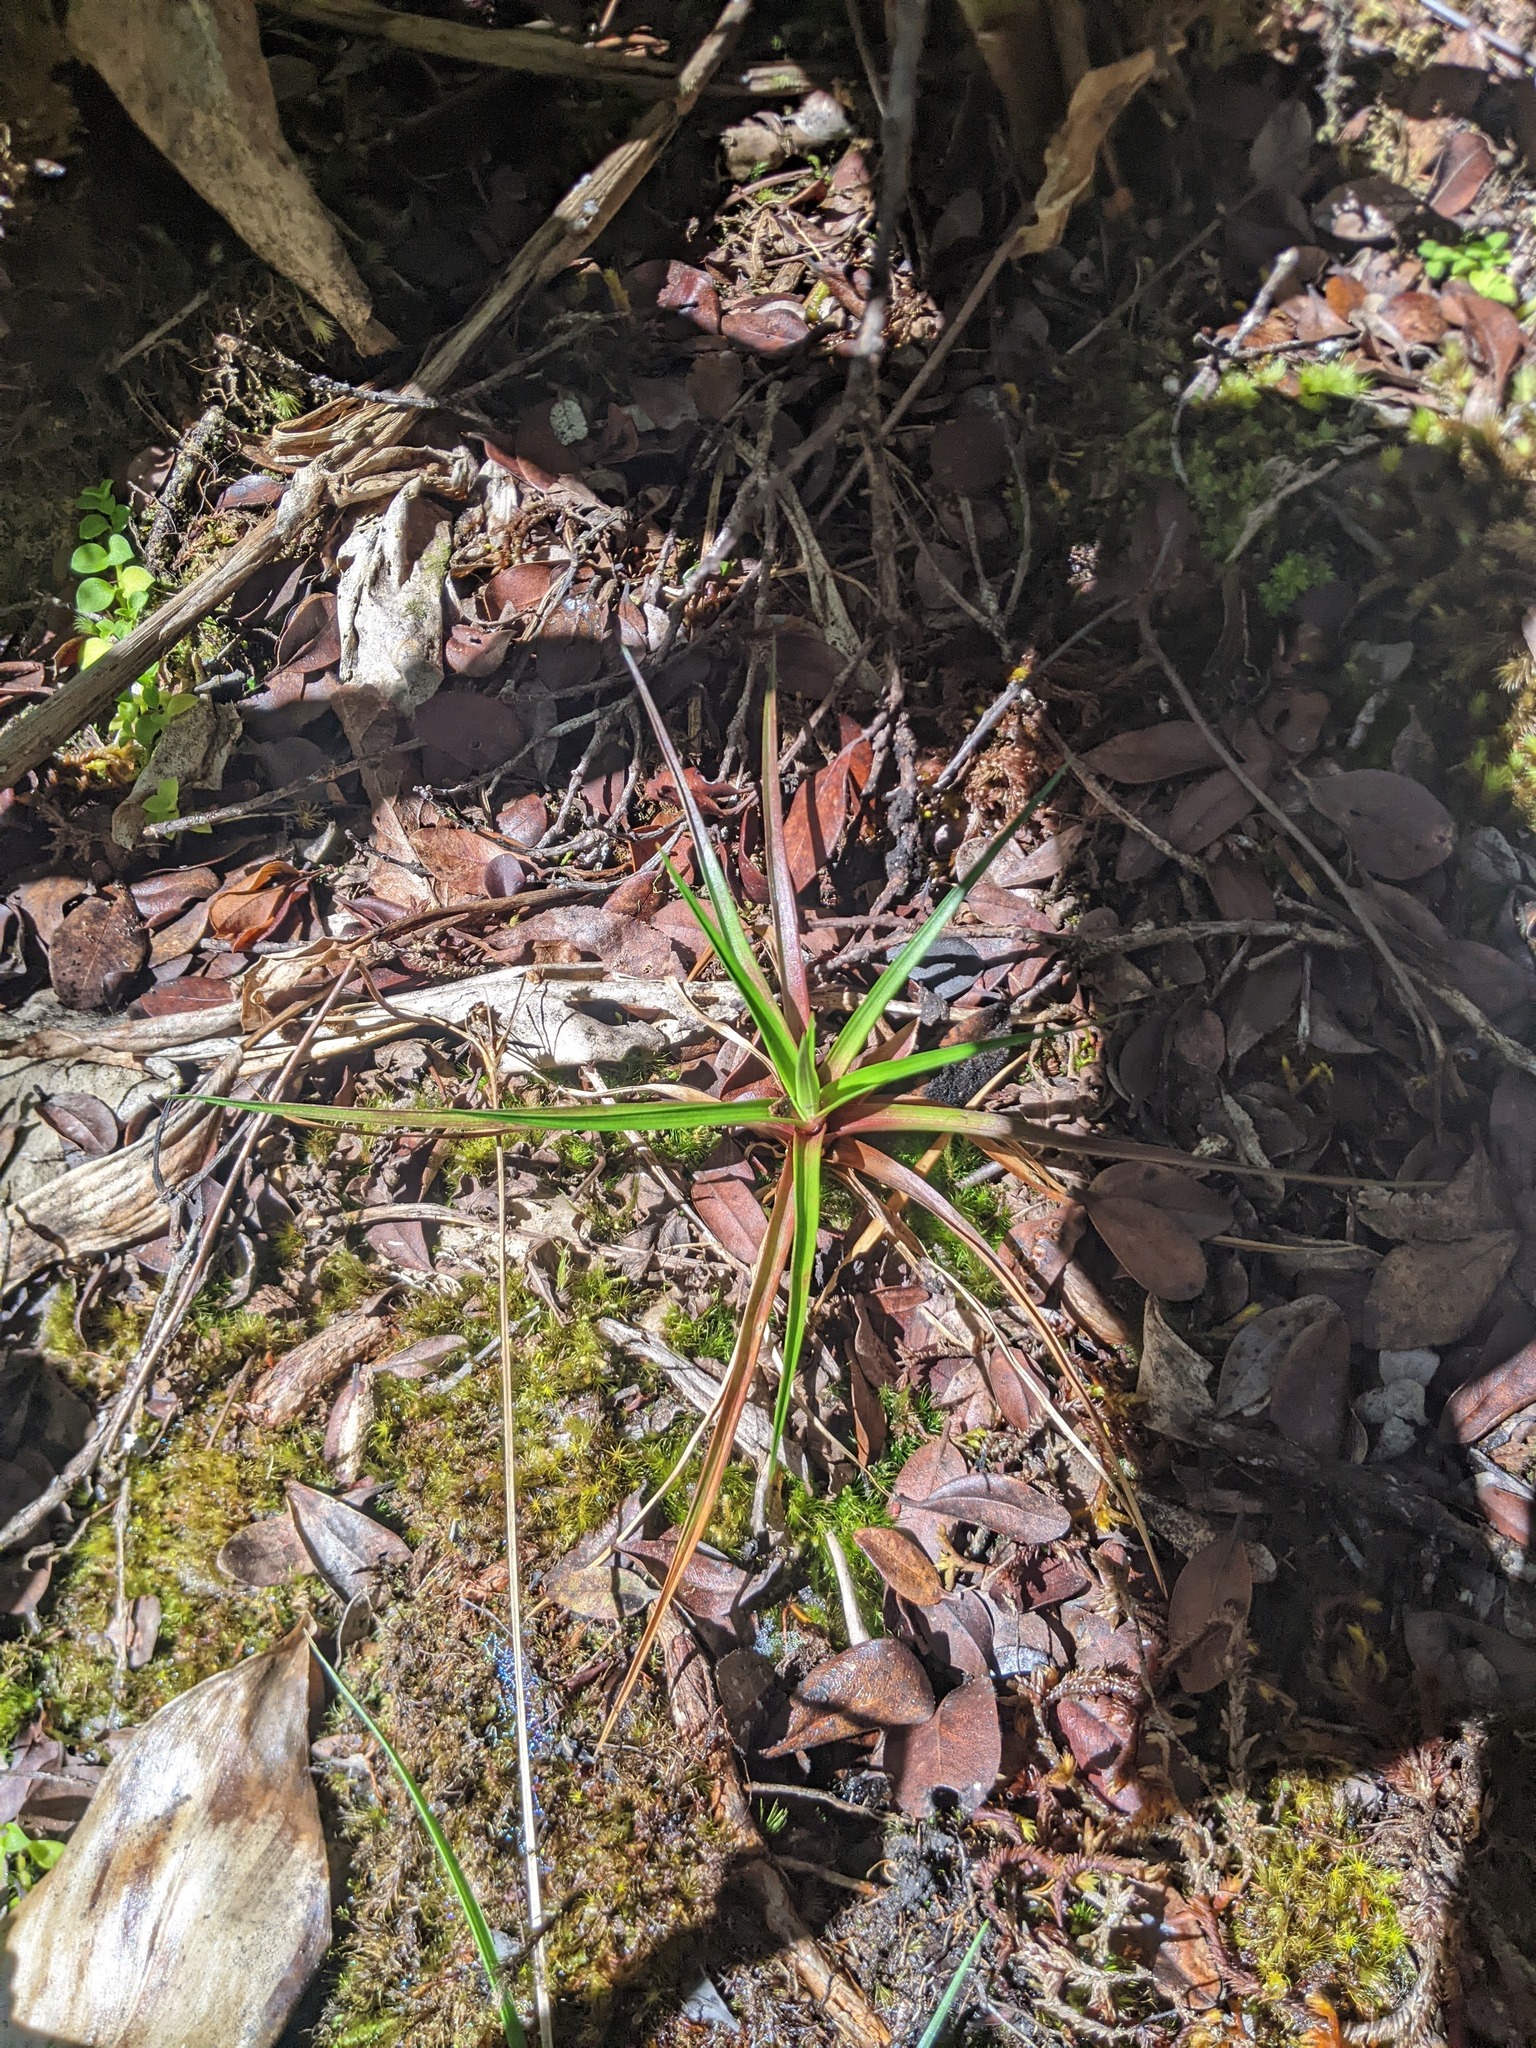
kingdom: Plantae
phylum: Tracheophyta
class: Liliopsida
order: Poales
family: Juncaceae
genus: Juncus
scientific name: Juncus planifolius
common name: Broadleaf rush
